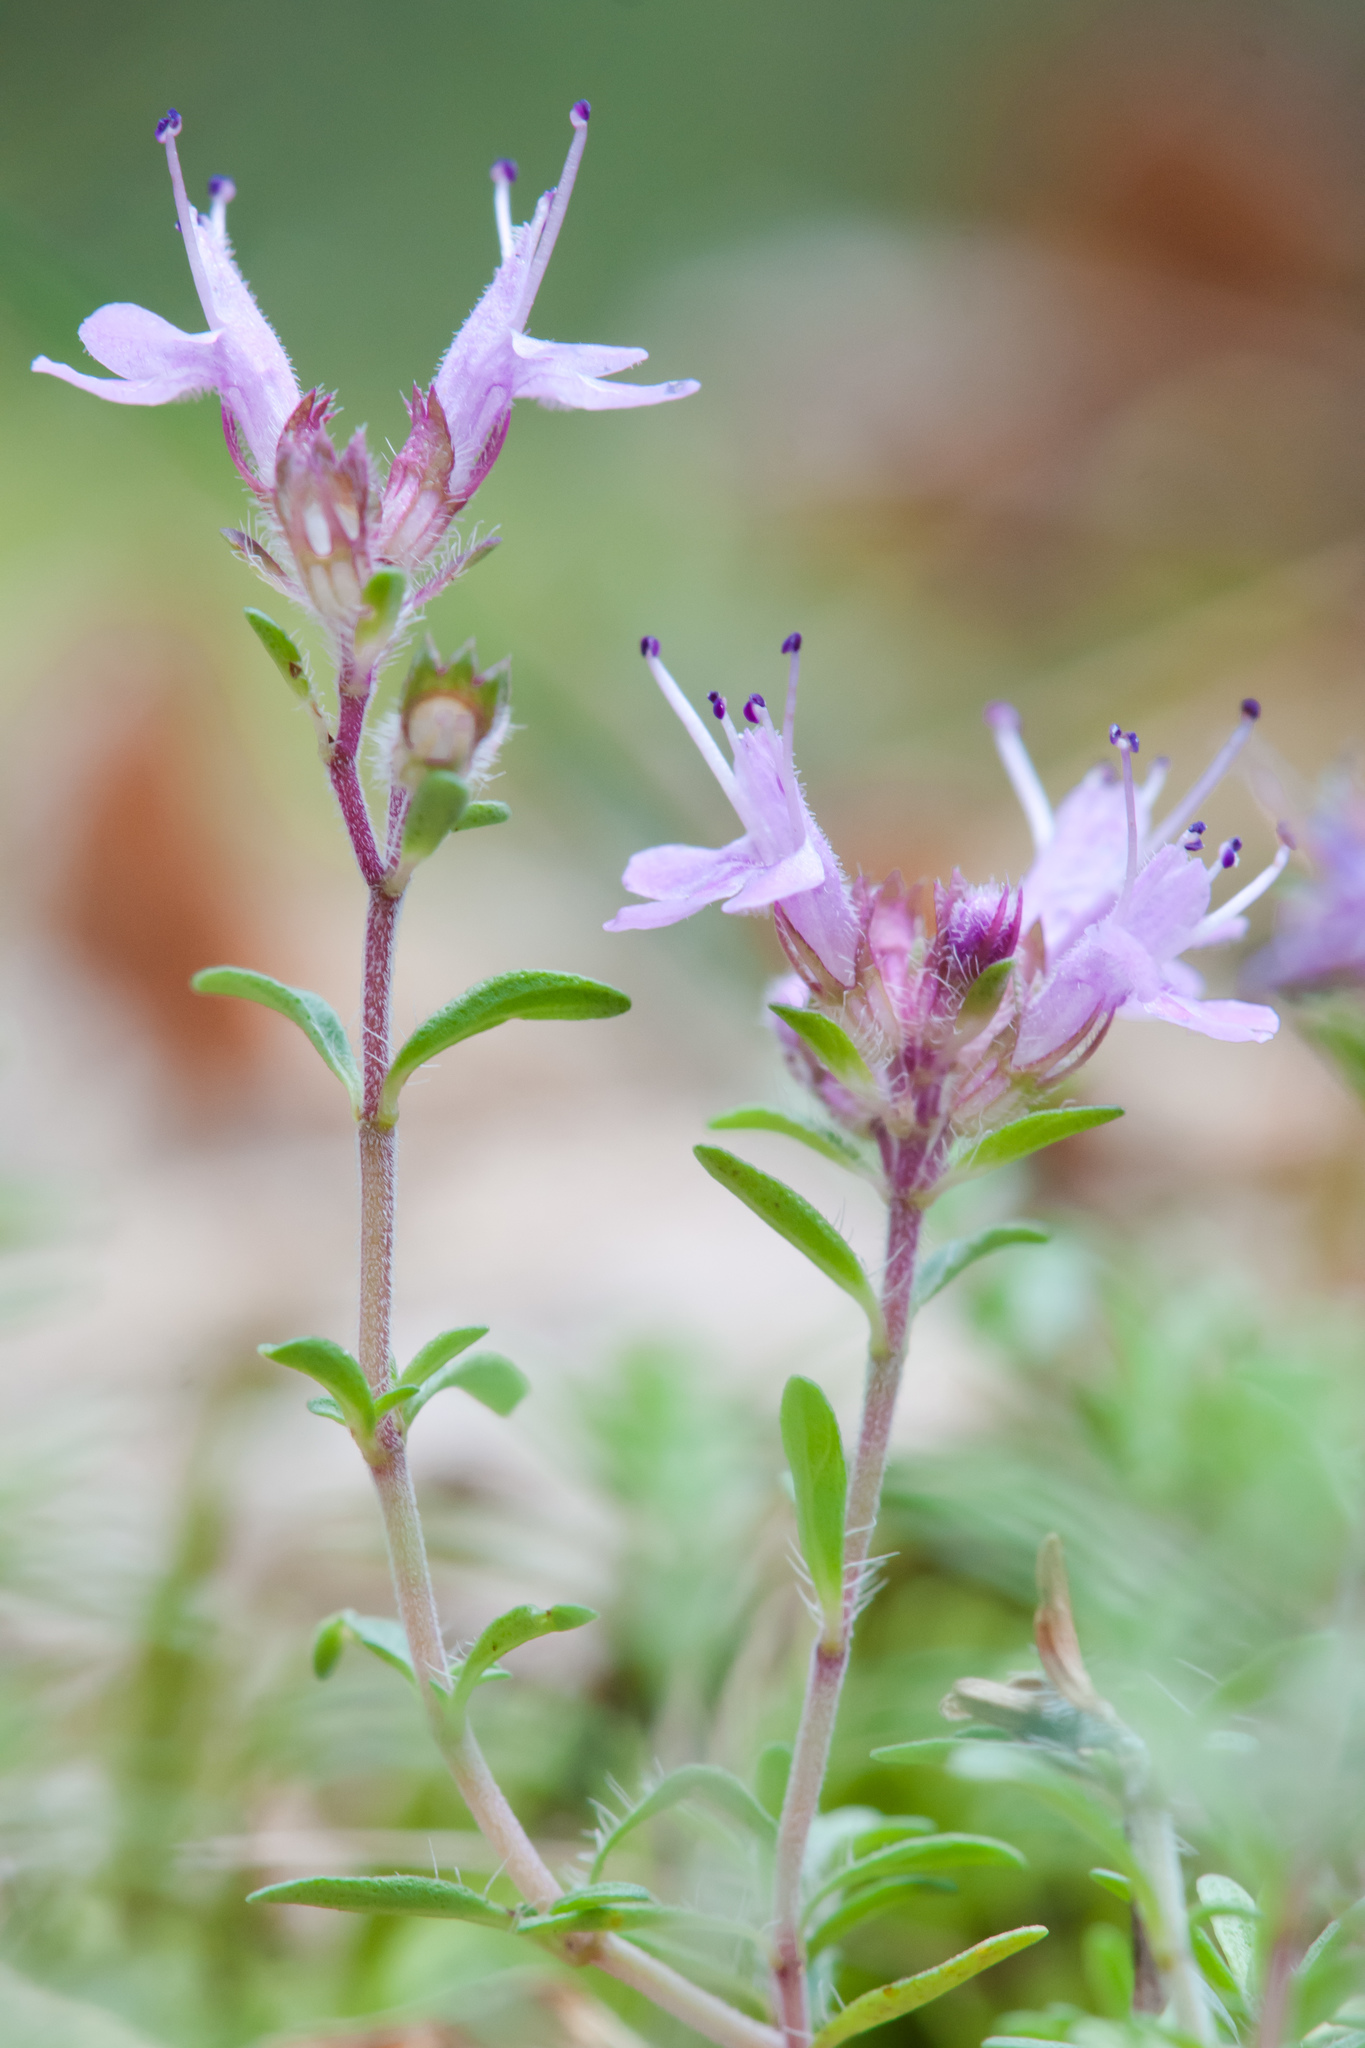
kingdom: Plantae
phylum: Tracheophyta
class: Magnoliopsida
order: Lamiales
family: Lamiaceae
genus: Thymus
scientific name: Thymus serpyllum
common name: Breckland thyme
